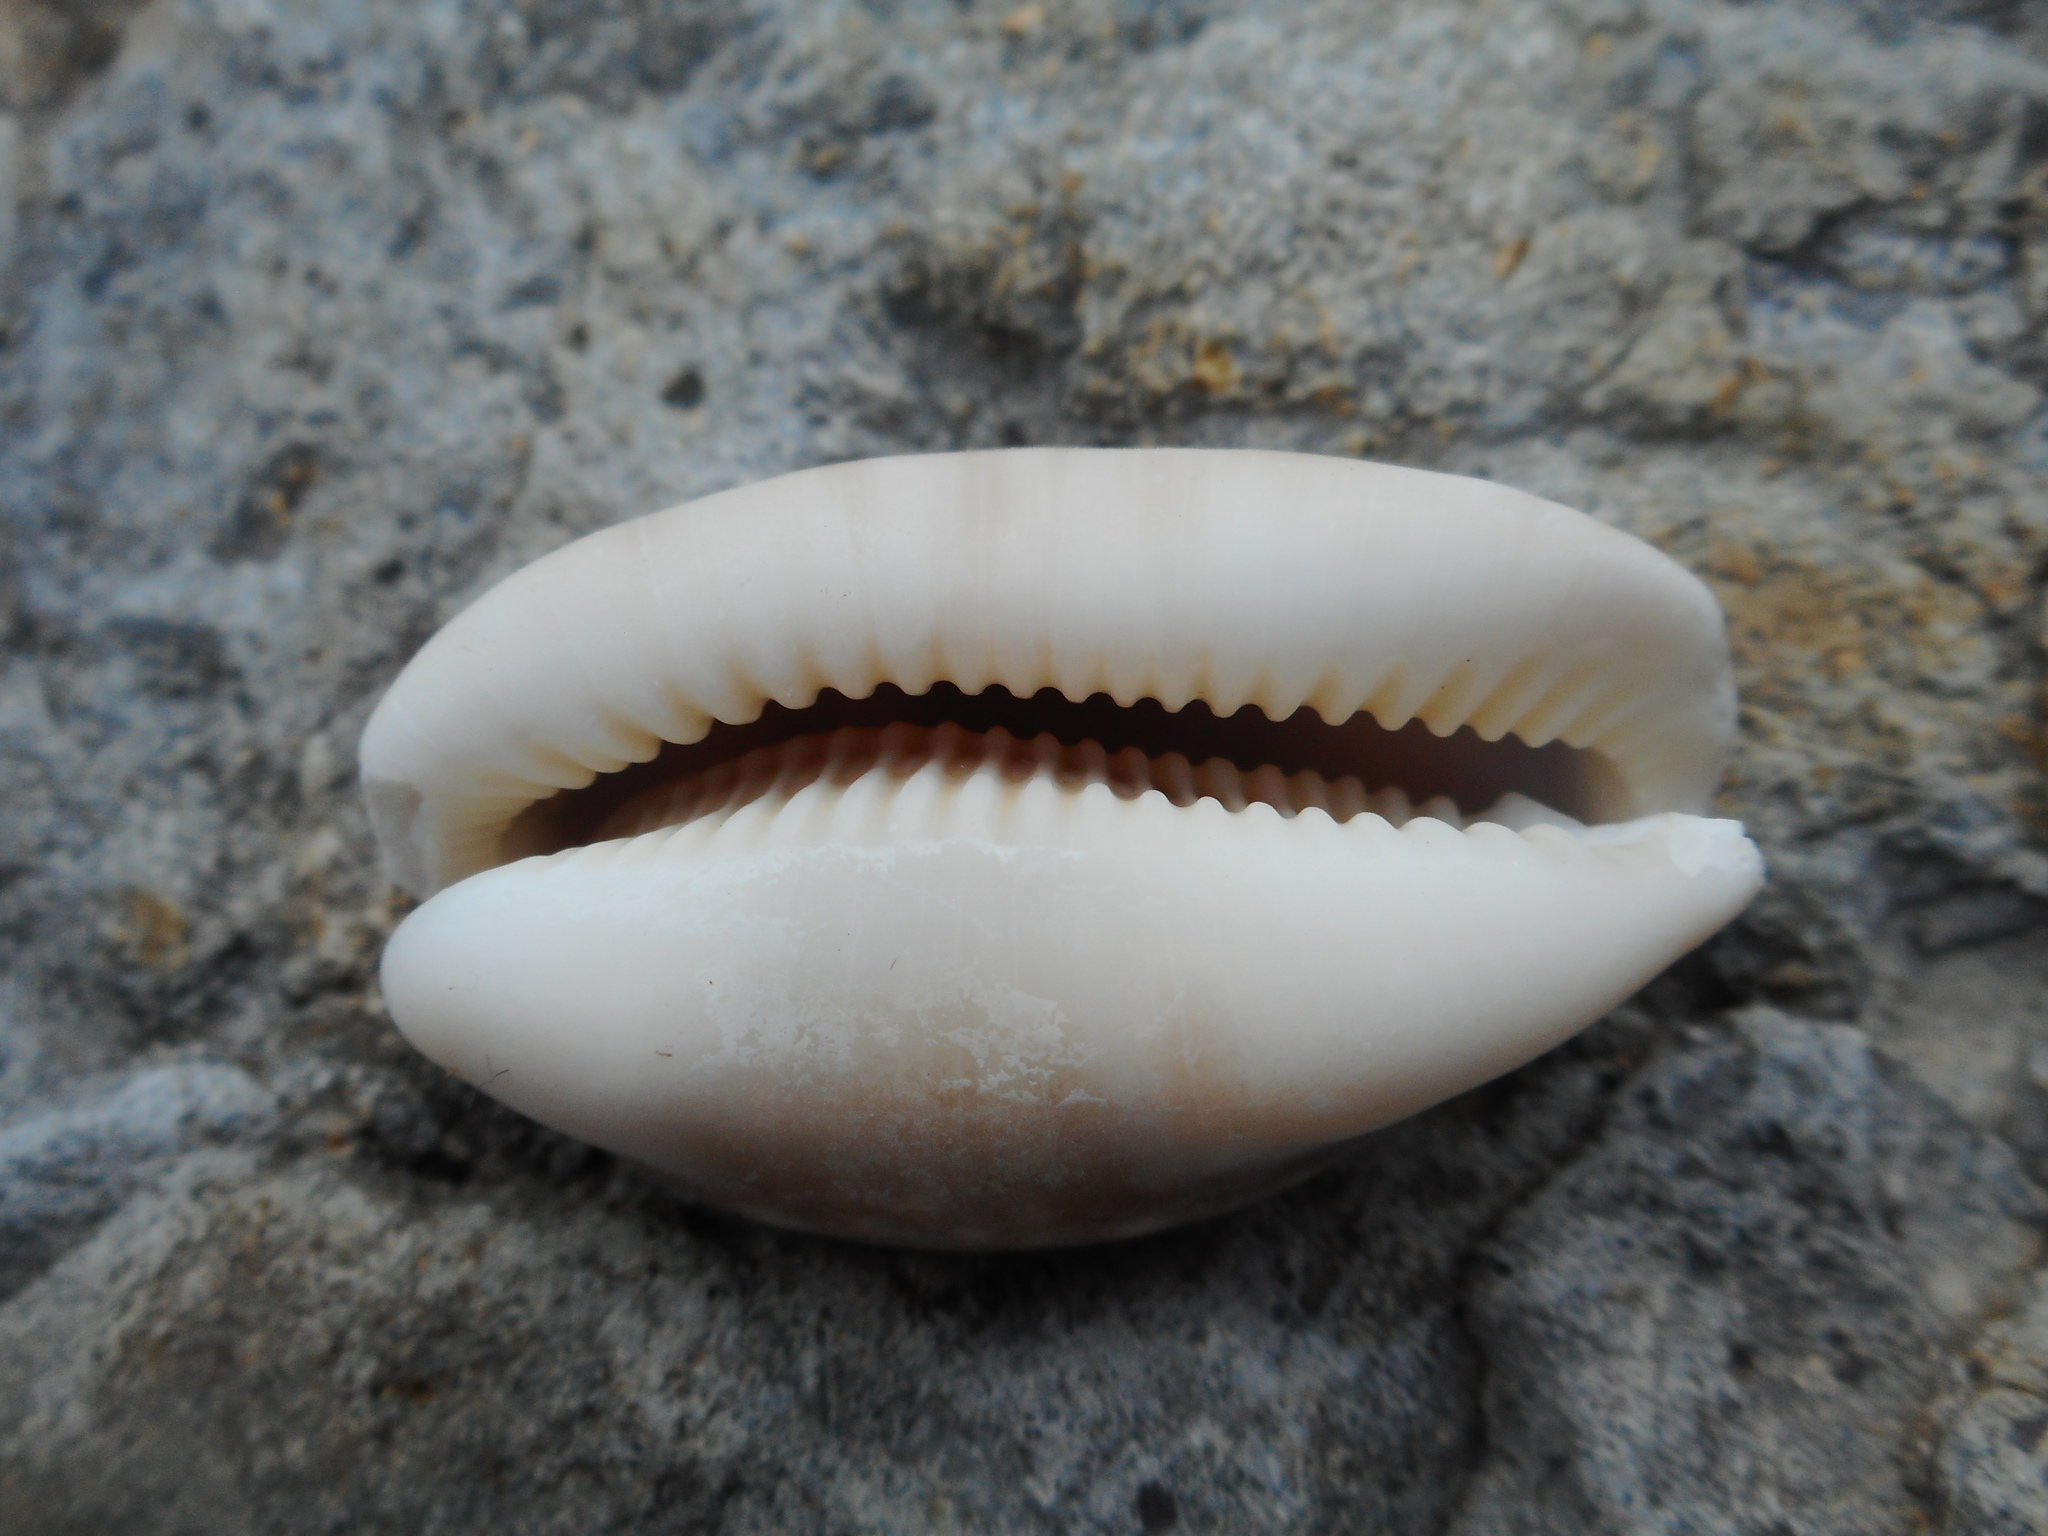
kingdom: Animalia
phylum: Mollusca
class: Gastropoda
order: Littorinimorpha
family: Cypraeidae
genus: Lyncina
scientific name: Lyncina vitellus
